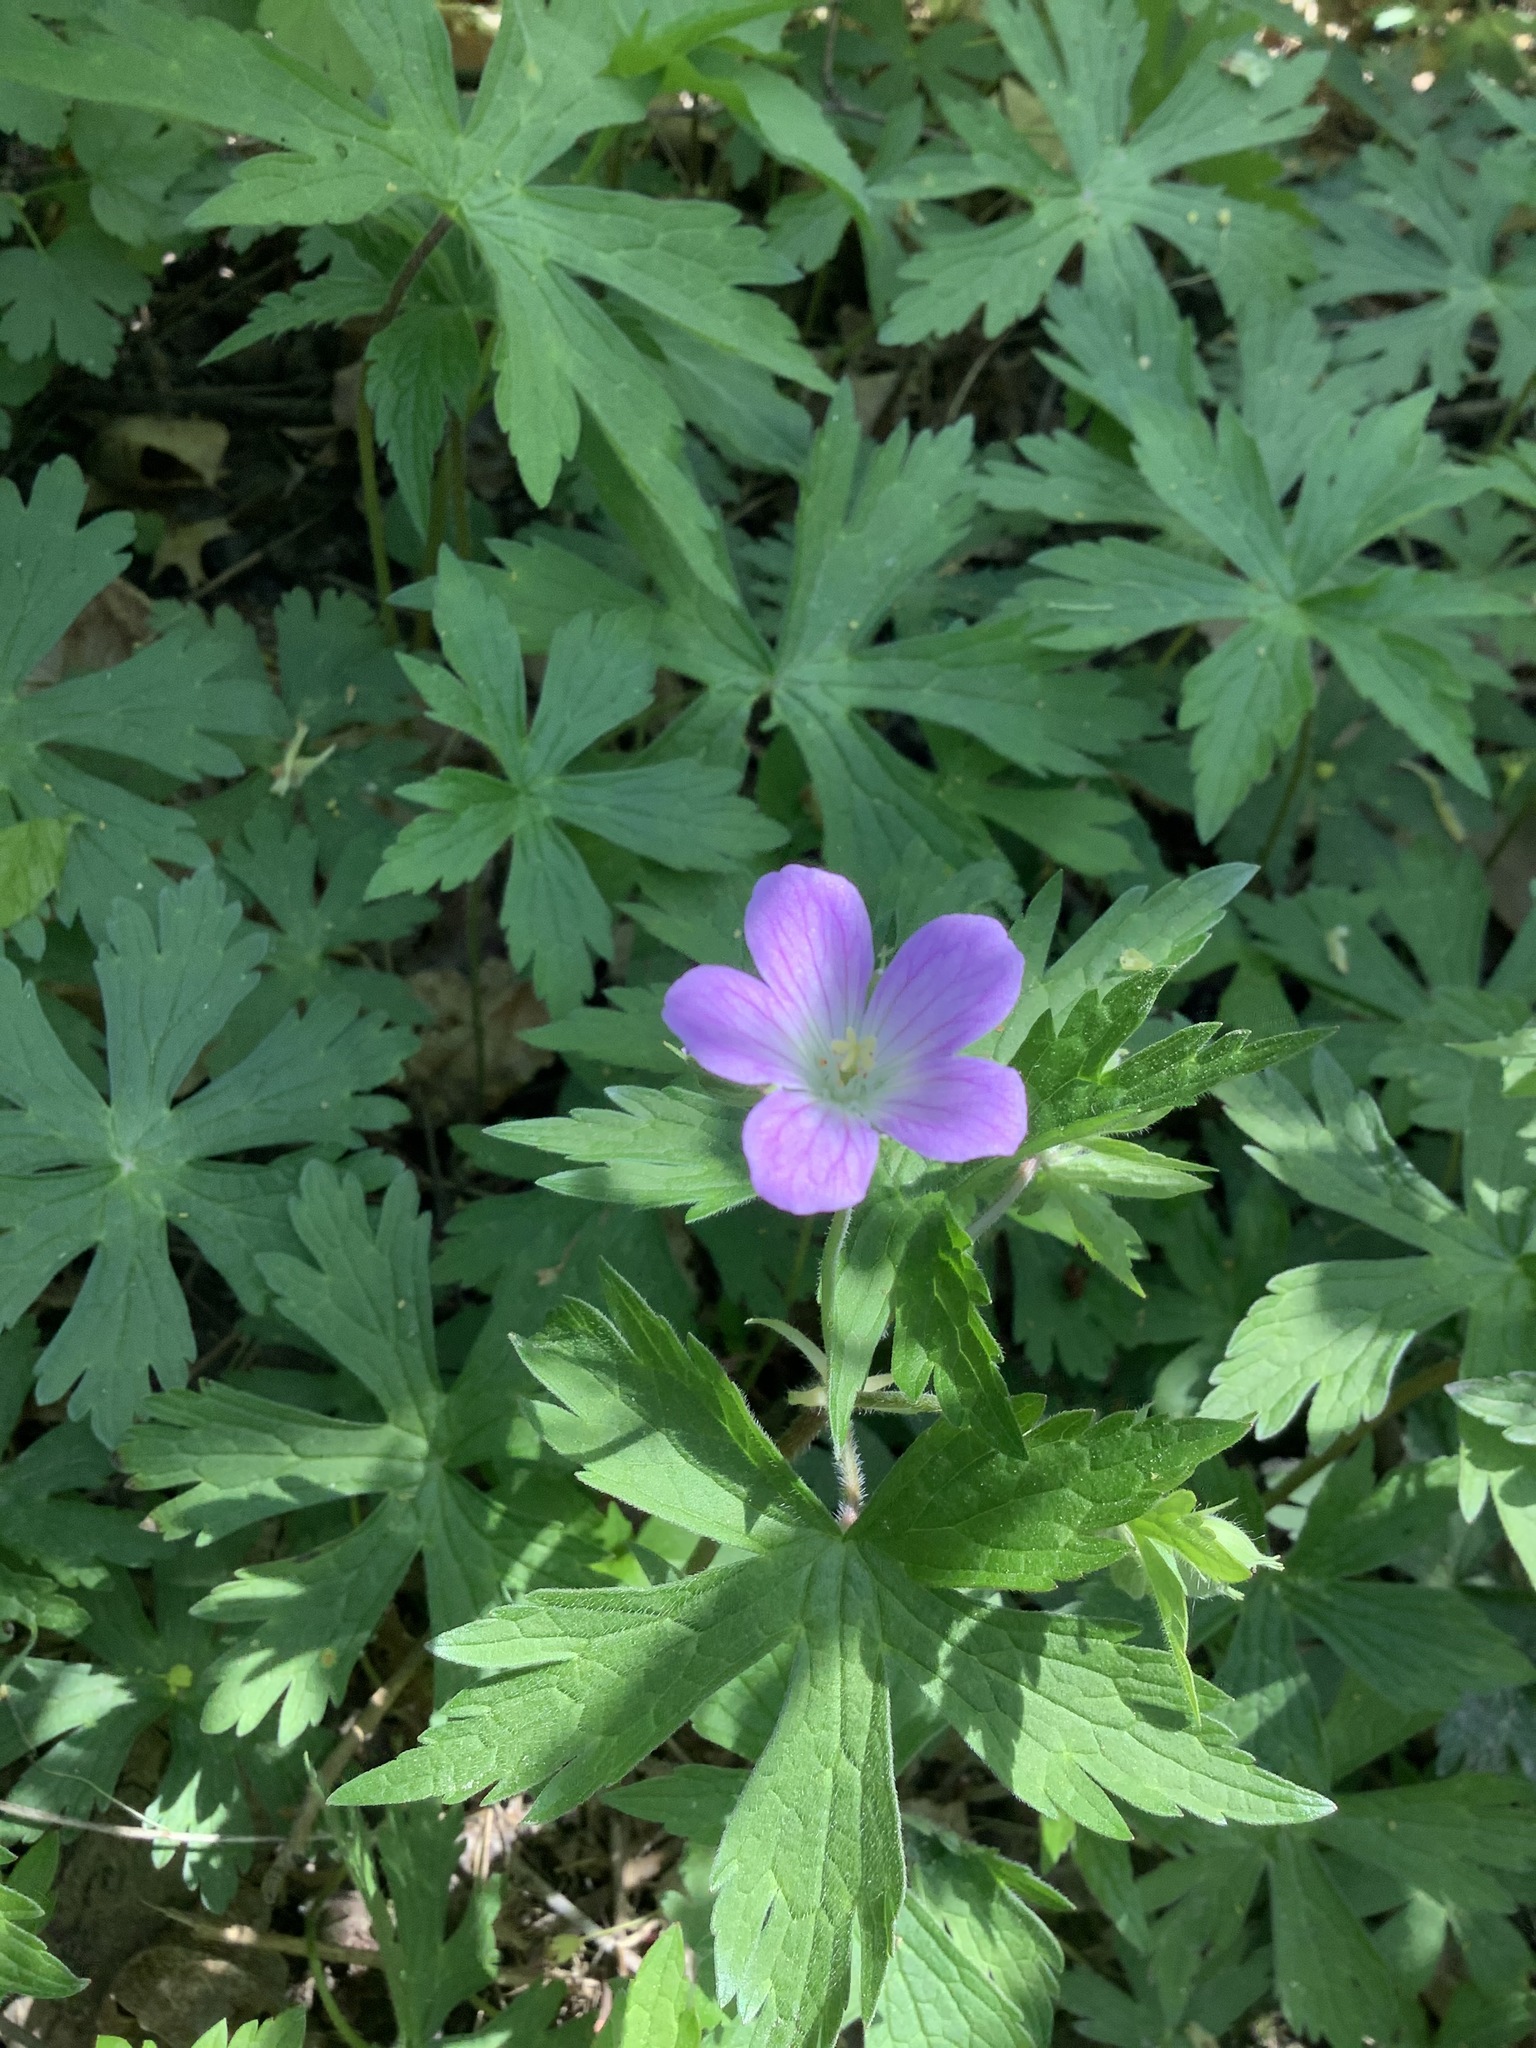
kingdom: Plantae
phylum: Tracheophyta
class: Magnoliopsida
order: Geraniales
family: Geraniaceae
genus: Geranium
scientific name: Geranium maculatum
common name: Spotted geranium
